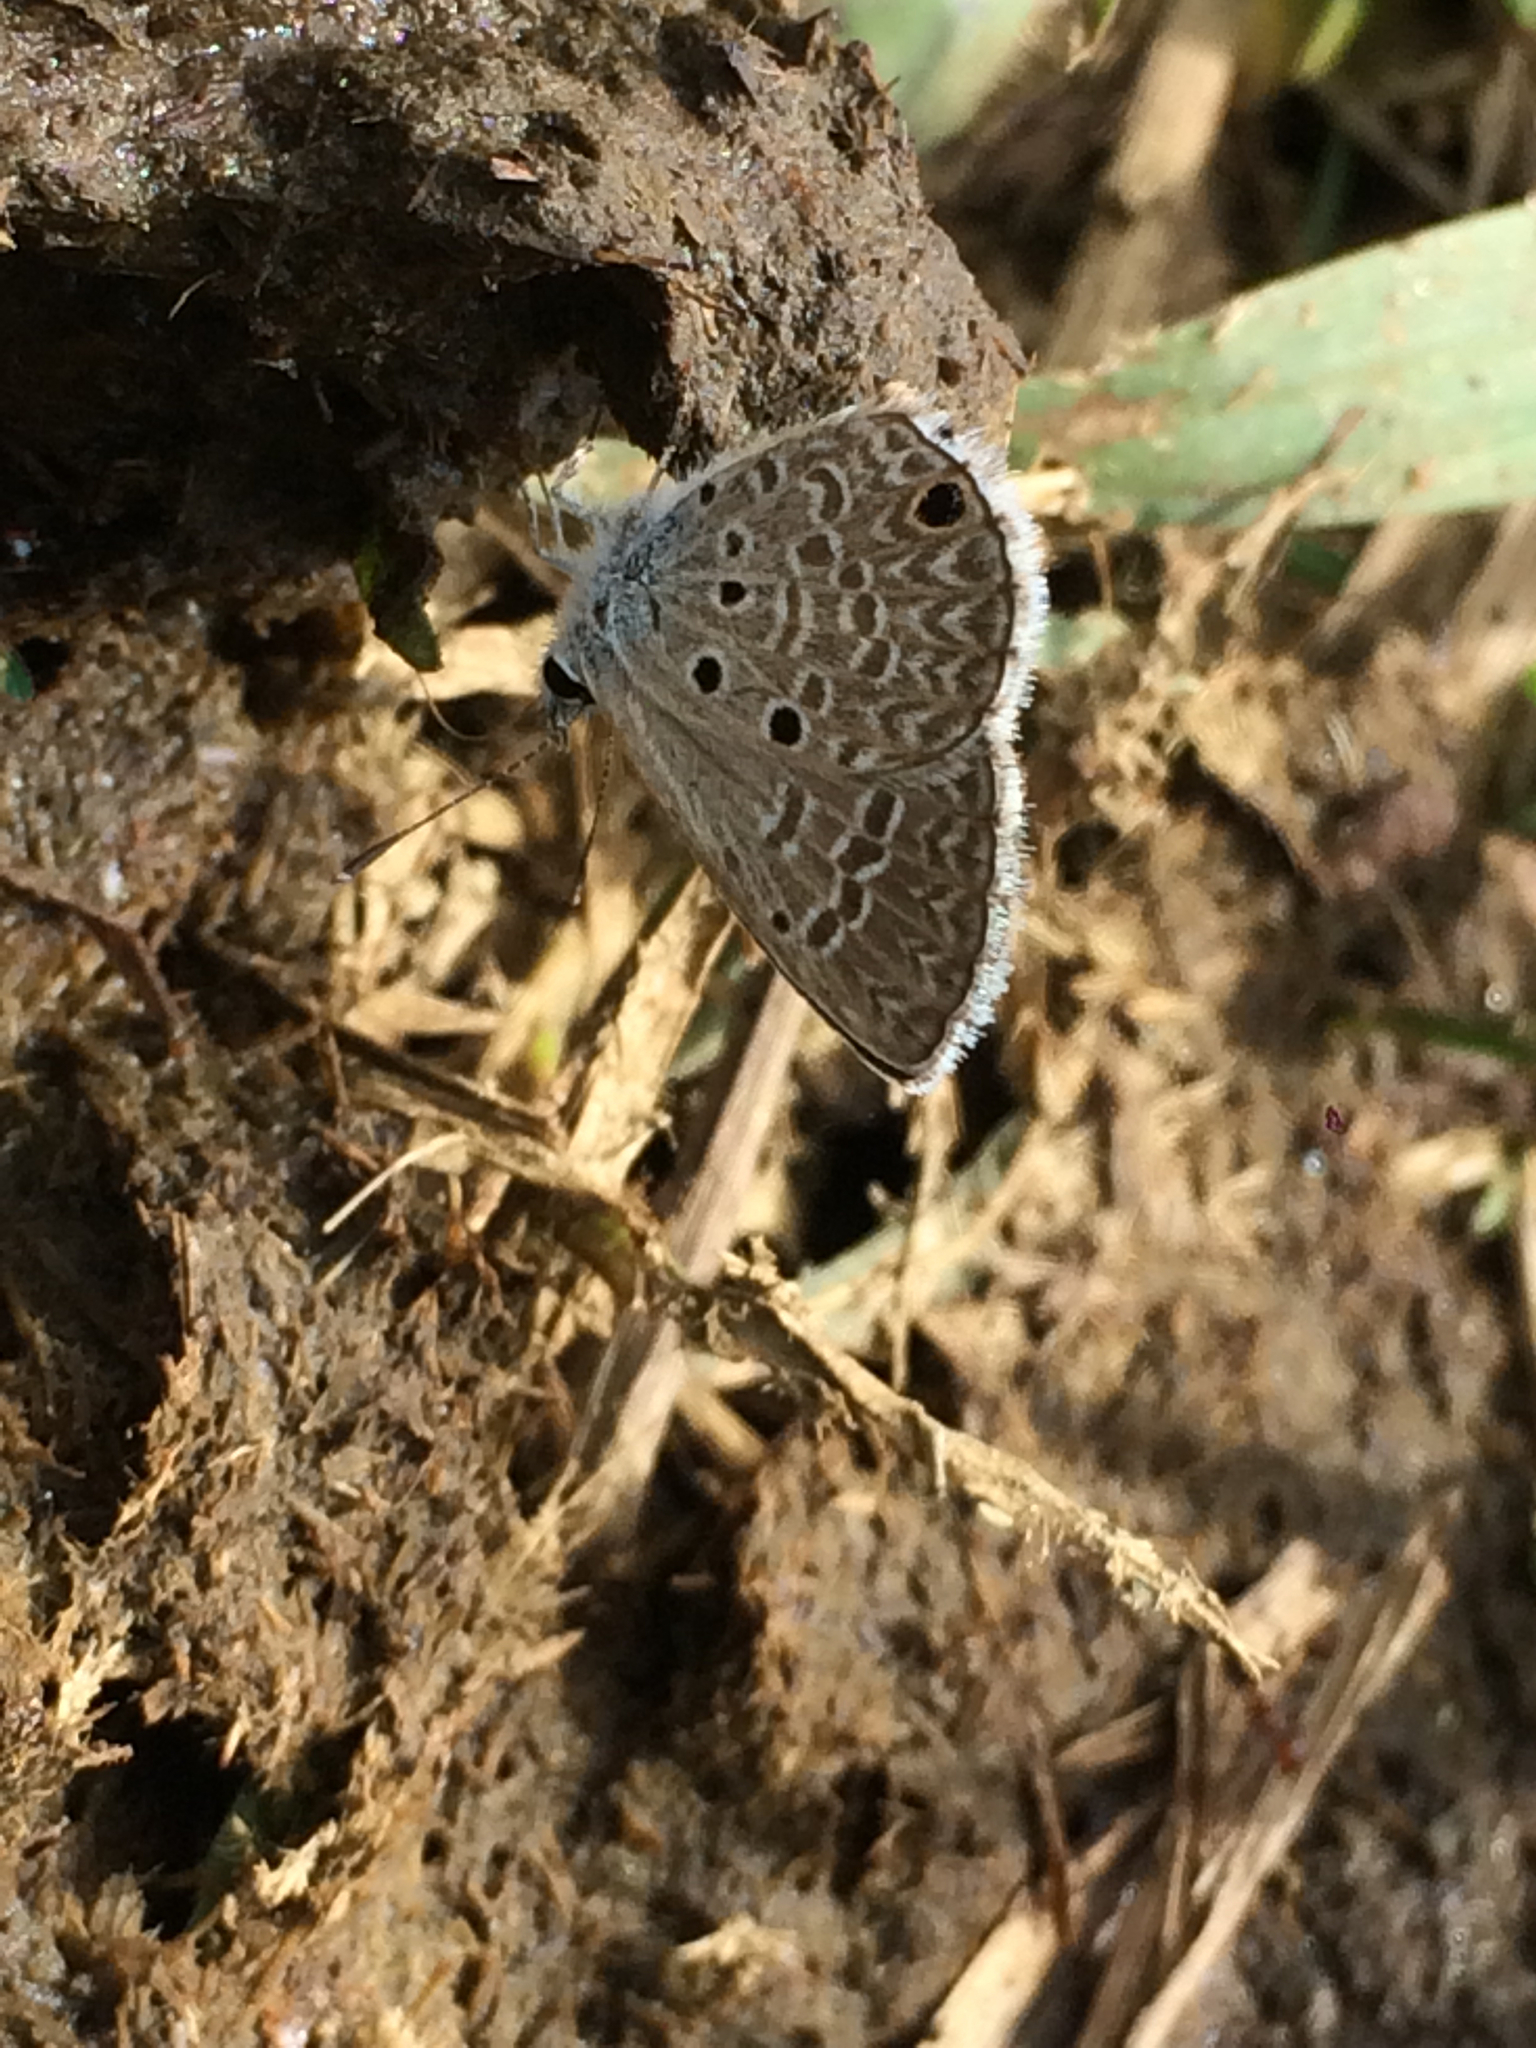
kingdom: Animalia
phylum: Arthropoda
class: Insecta
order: Lepidoptera
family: Lycaenidae
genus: Hemiargus
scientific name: Hemiargus hanno
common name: Common blue
